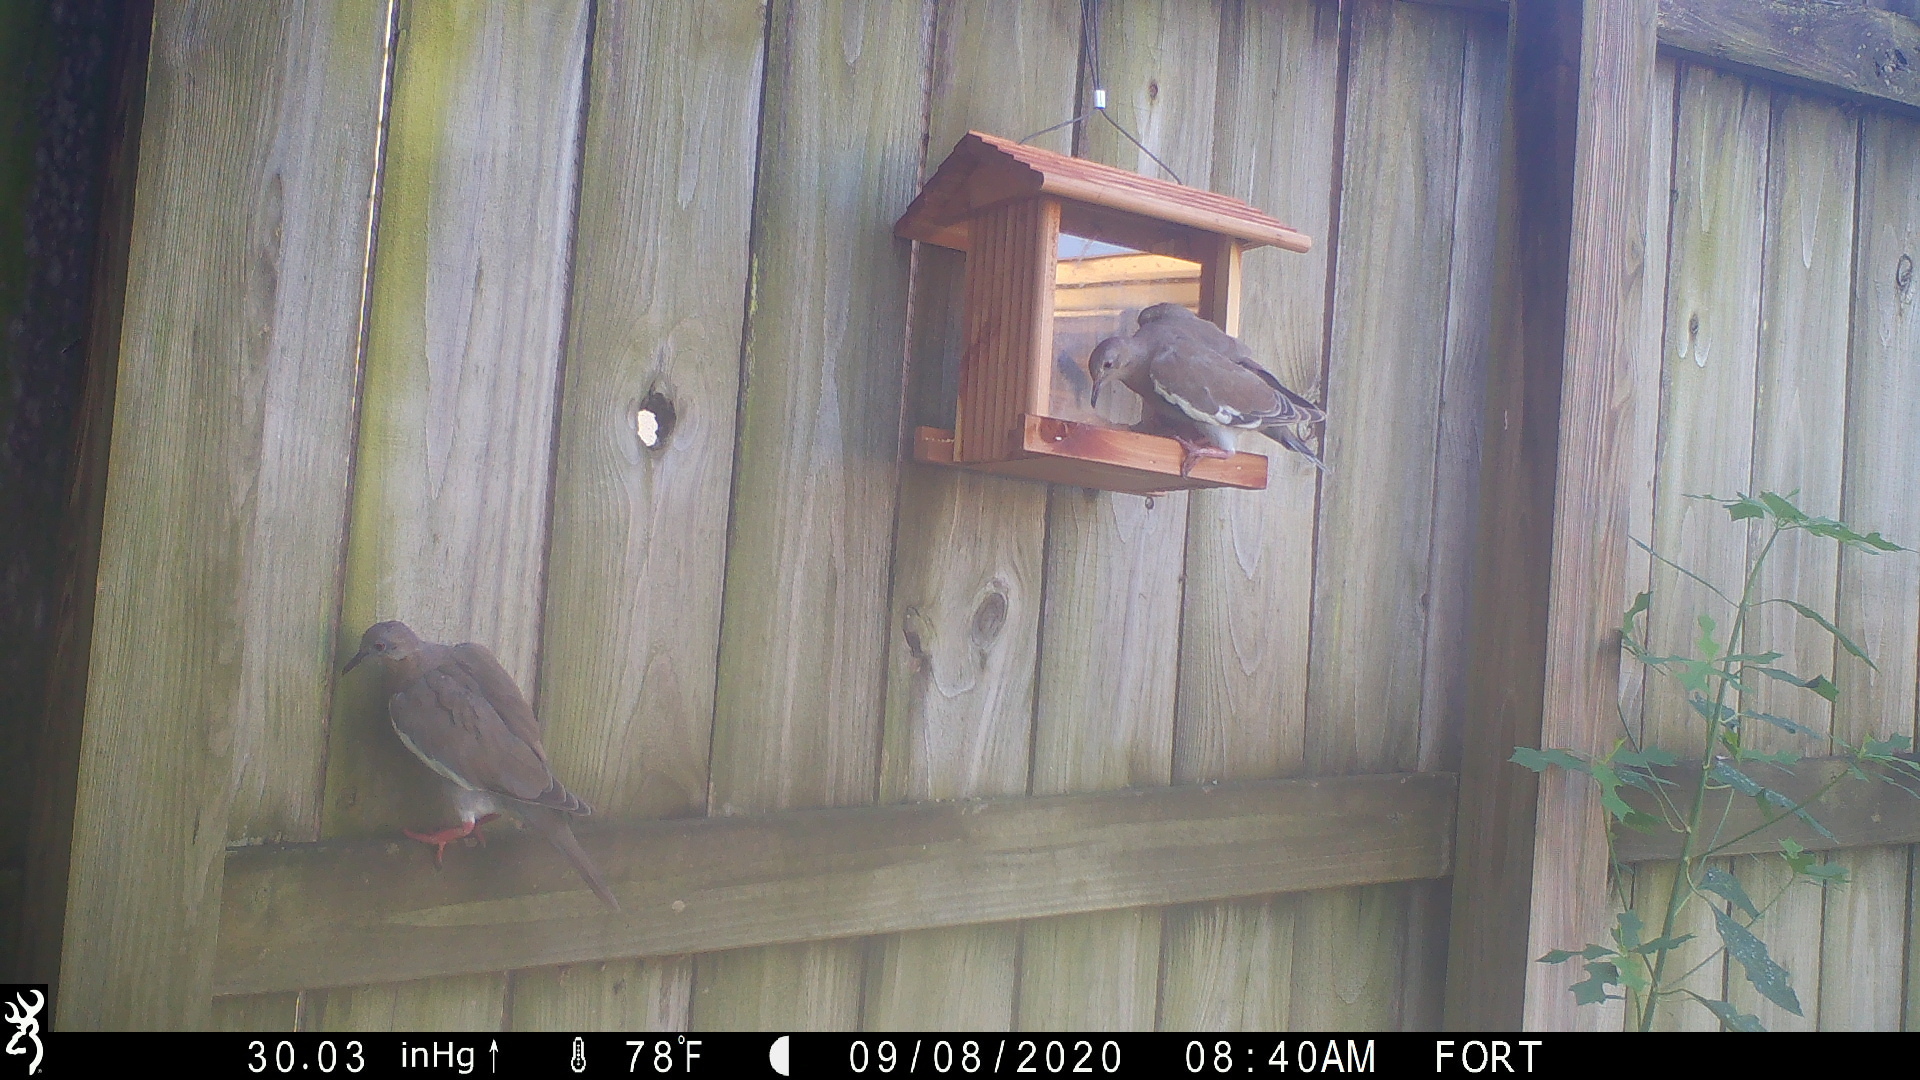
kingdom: Animalia
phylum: Chordata
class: Aves
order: Columbiformes
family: Columbidae
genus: Zenaida
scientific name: Zenaida asiatica
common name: White-winged dove
